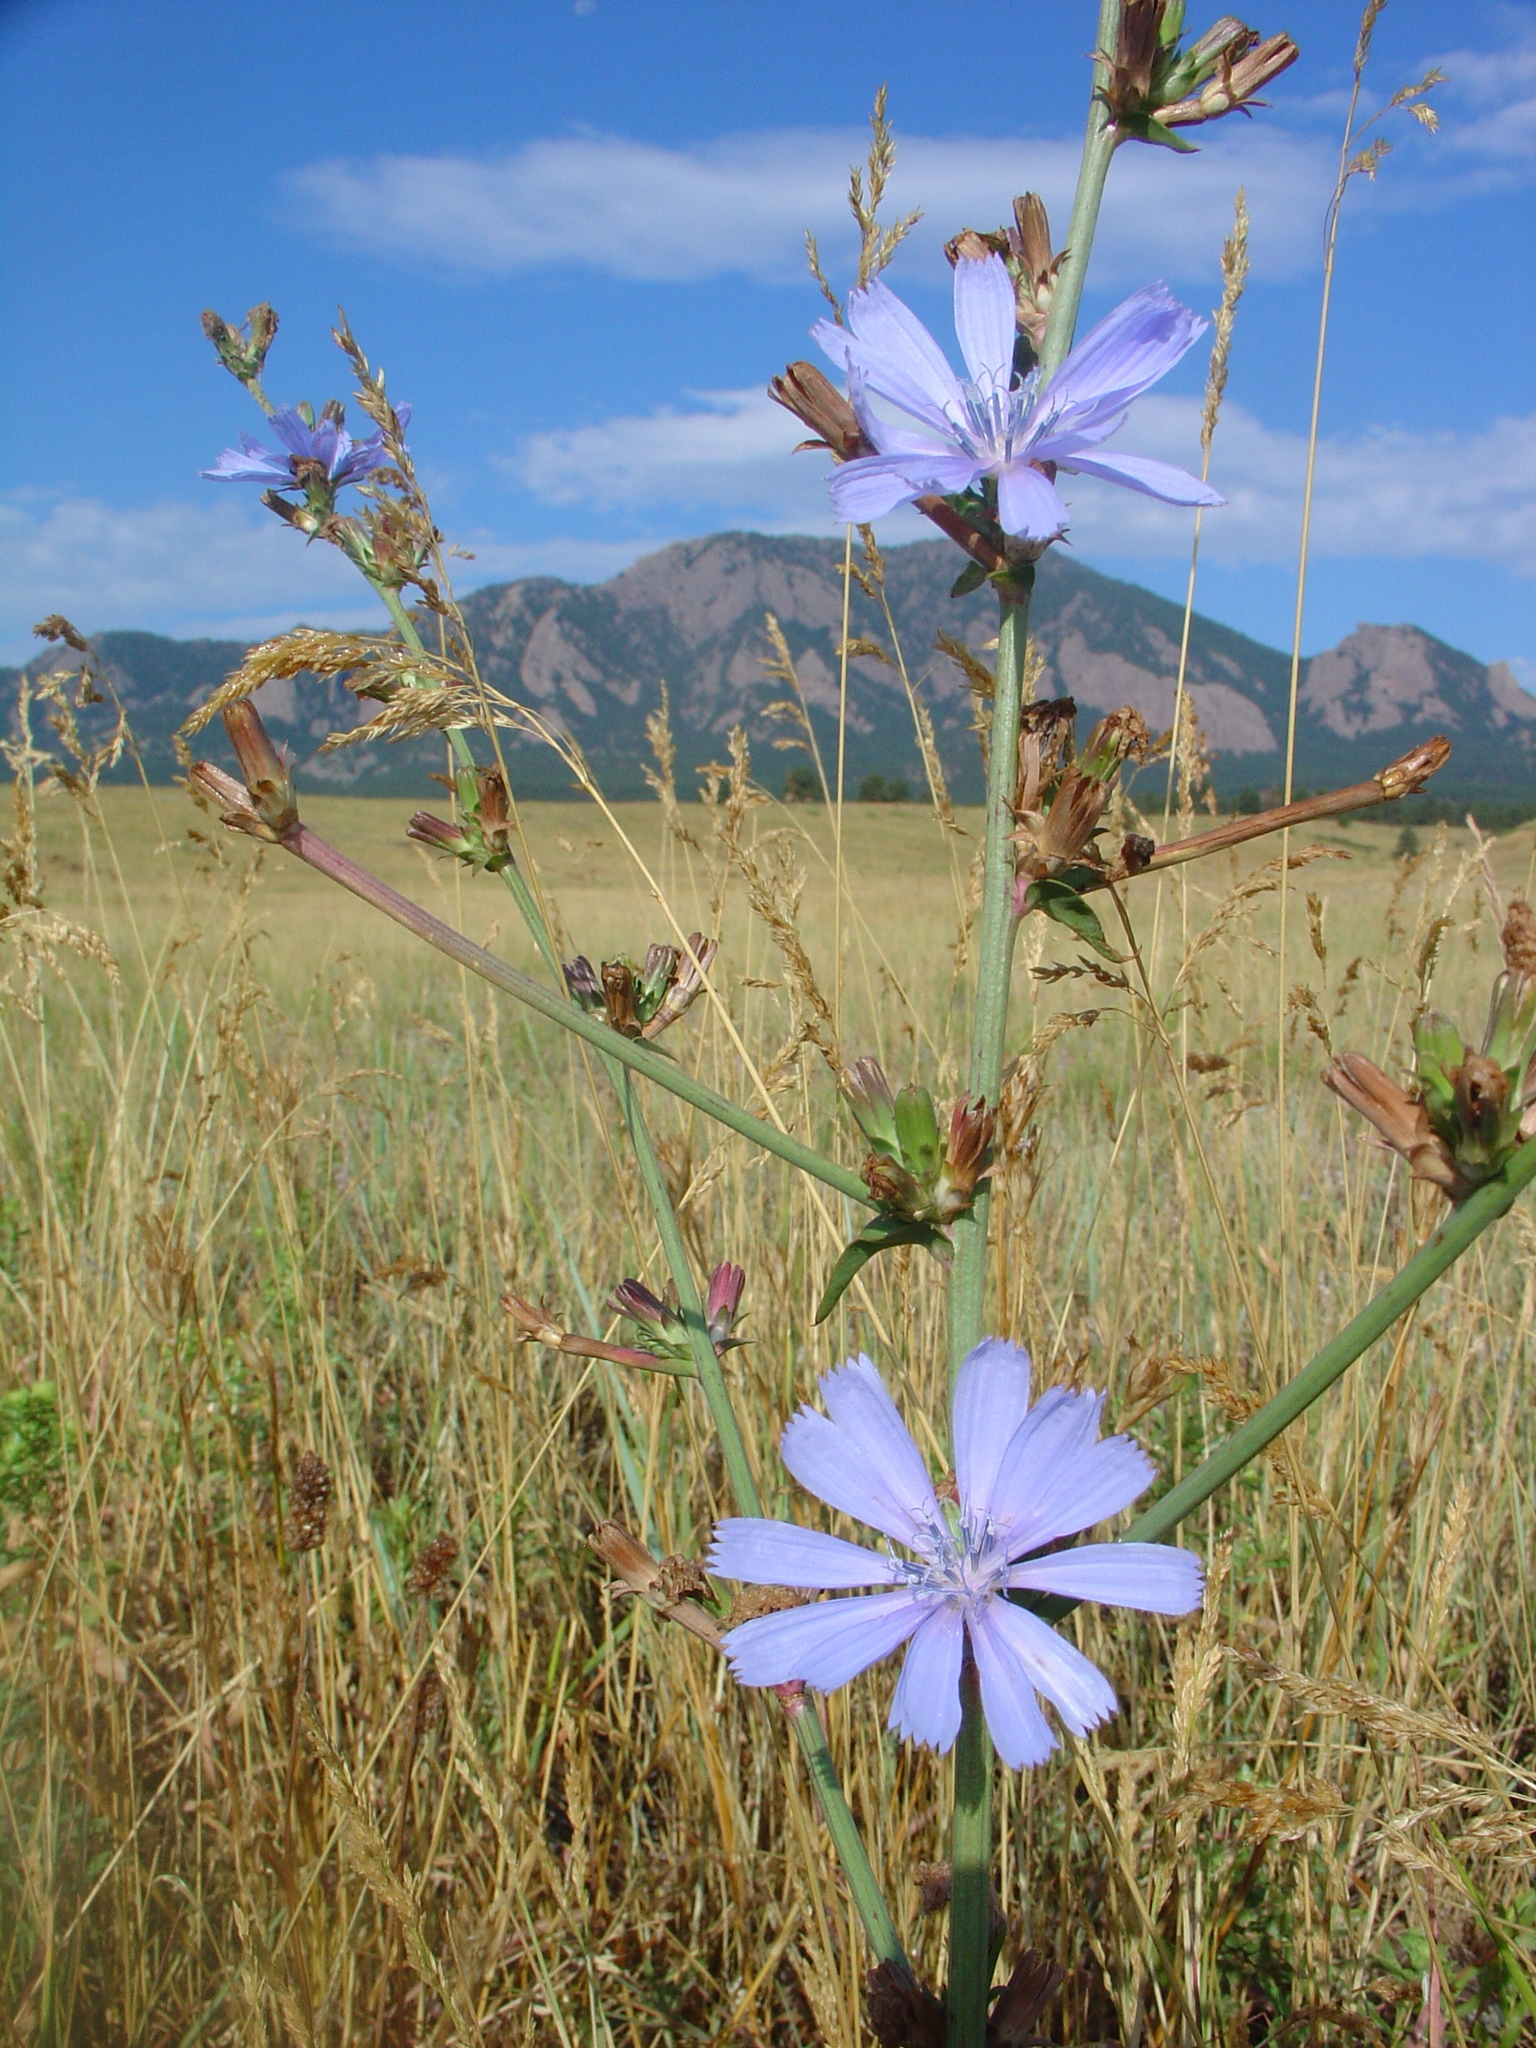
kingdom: Plantae
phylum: Tracheophyta
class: Magnoliopsida
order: Asterales
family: Asteraceae
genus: Cichorium
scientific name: Cichorium intybus
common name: Chicory
